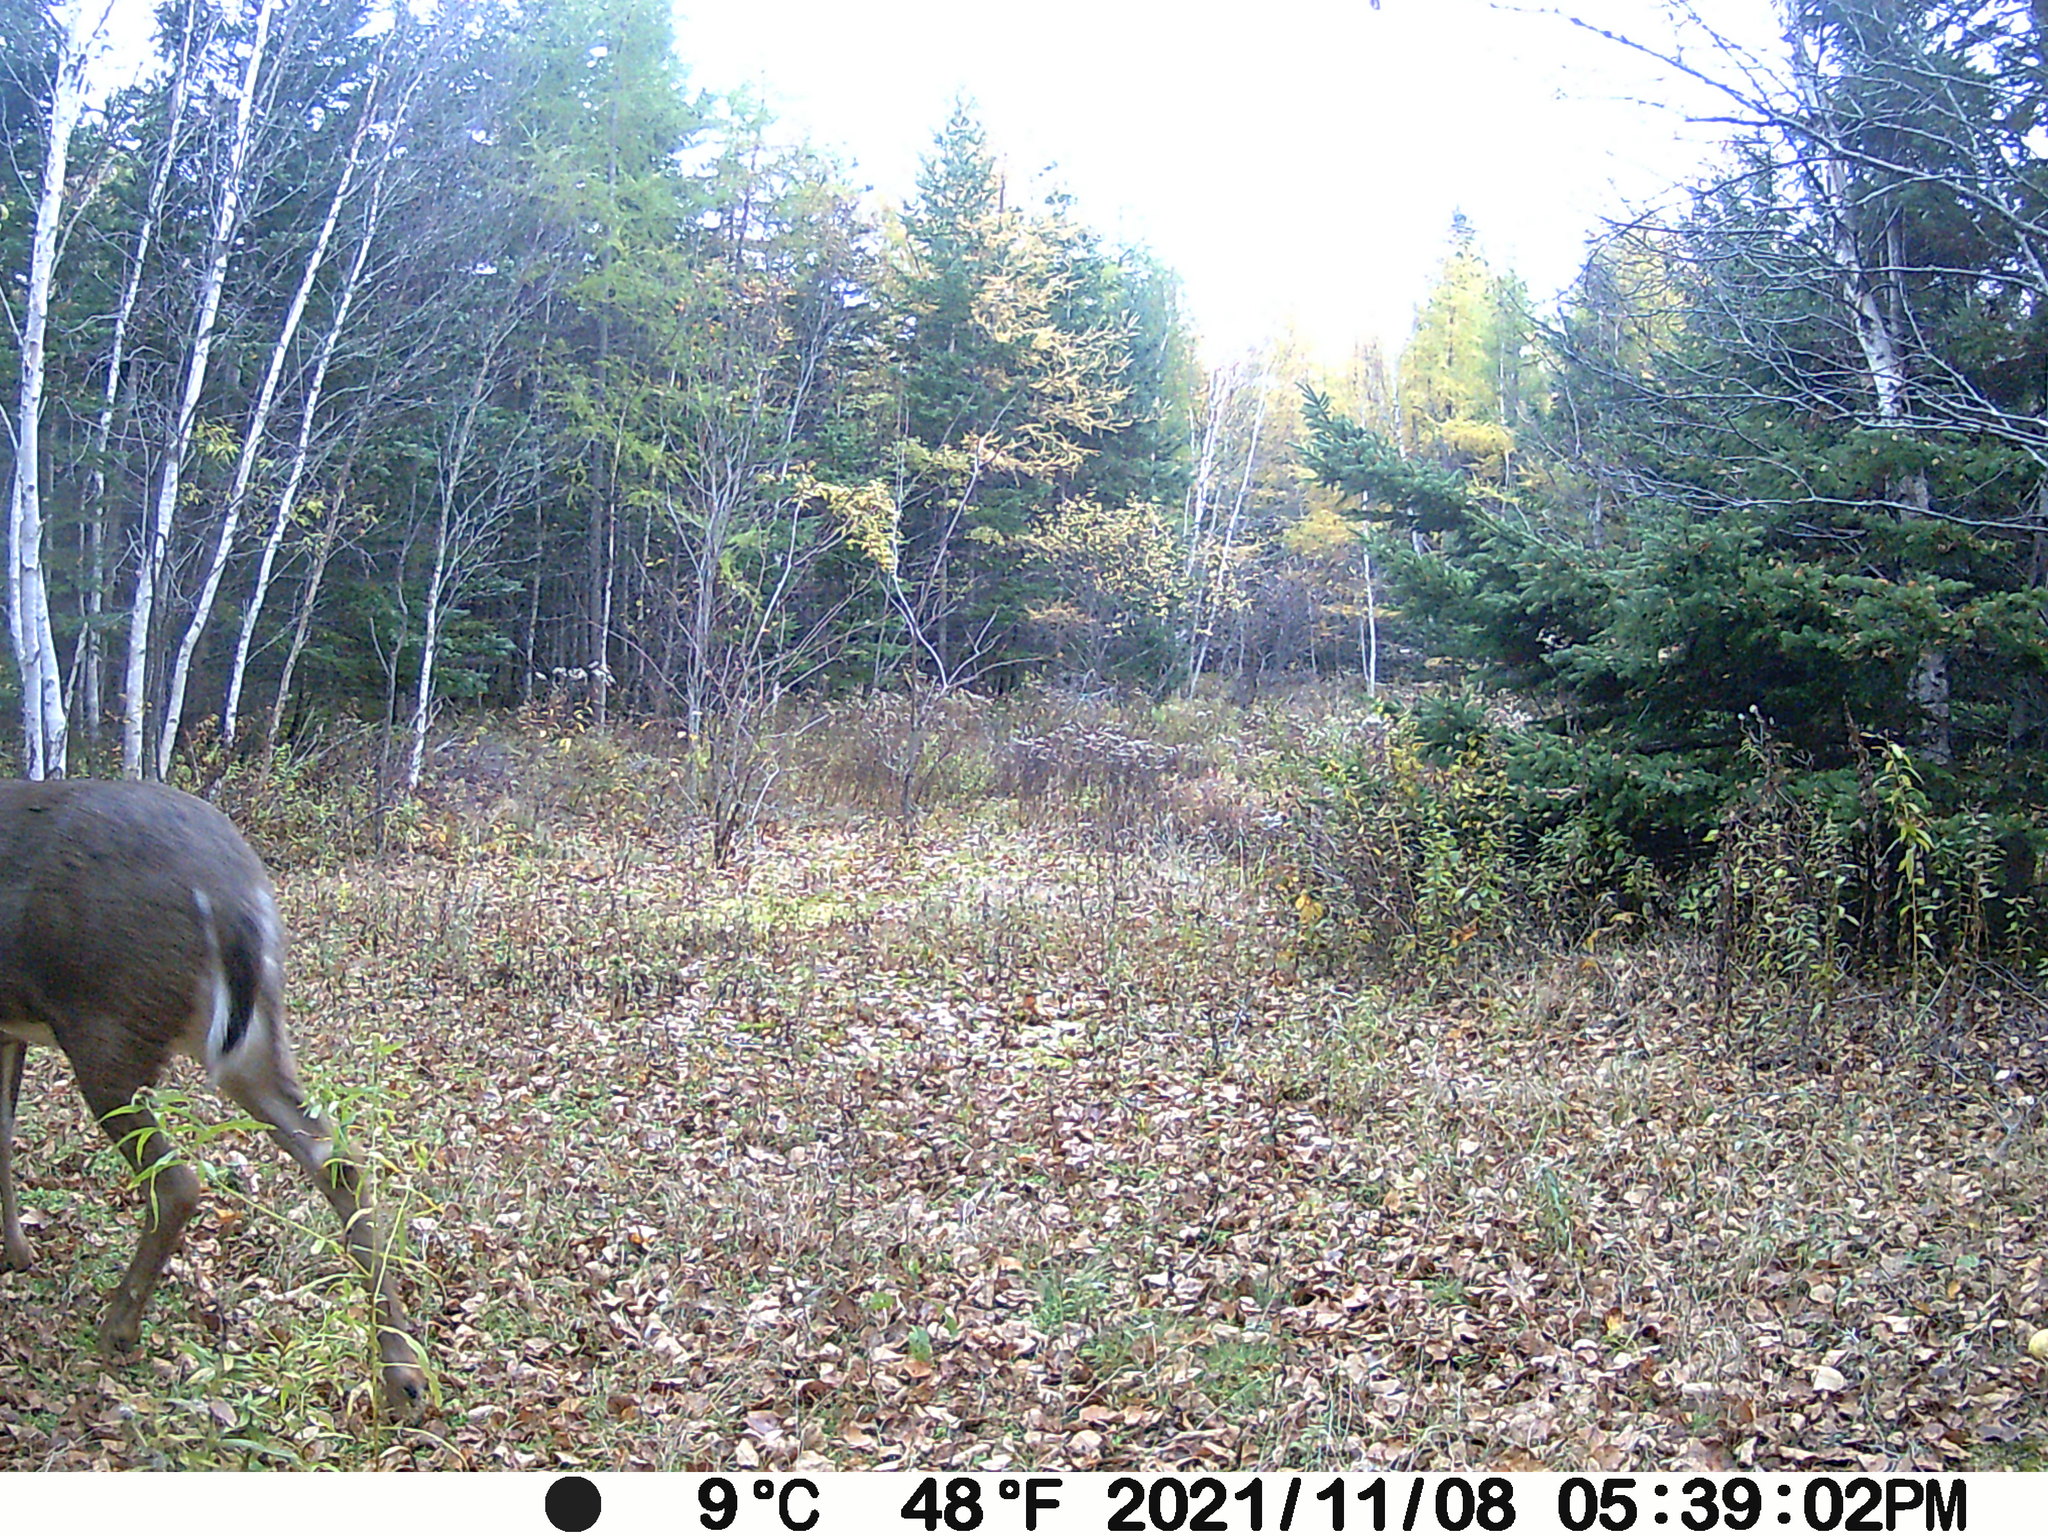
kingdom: Animalia
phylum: Chordata
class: Mammalia
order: Artiodactyla
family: Cervidae
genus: Odocoileus
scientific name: Odocoileus virginianus
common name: White-tailed deer
